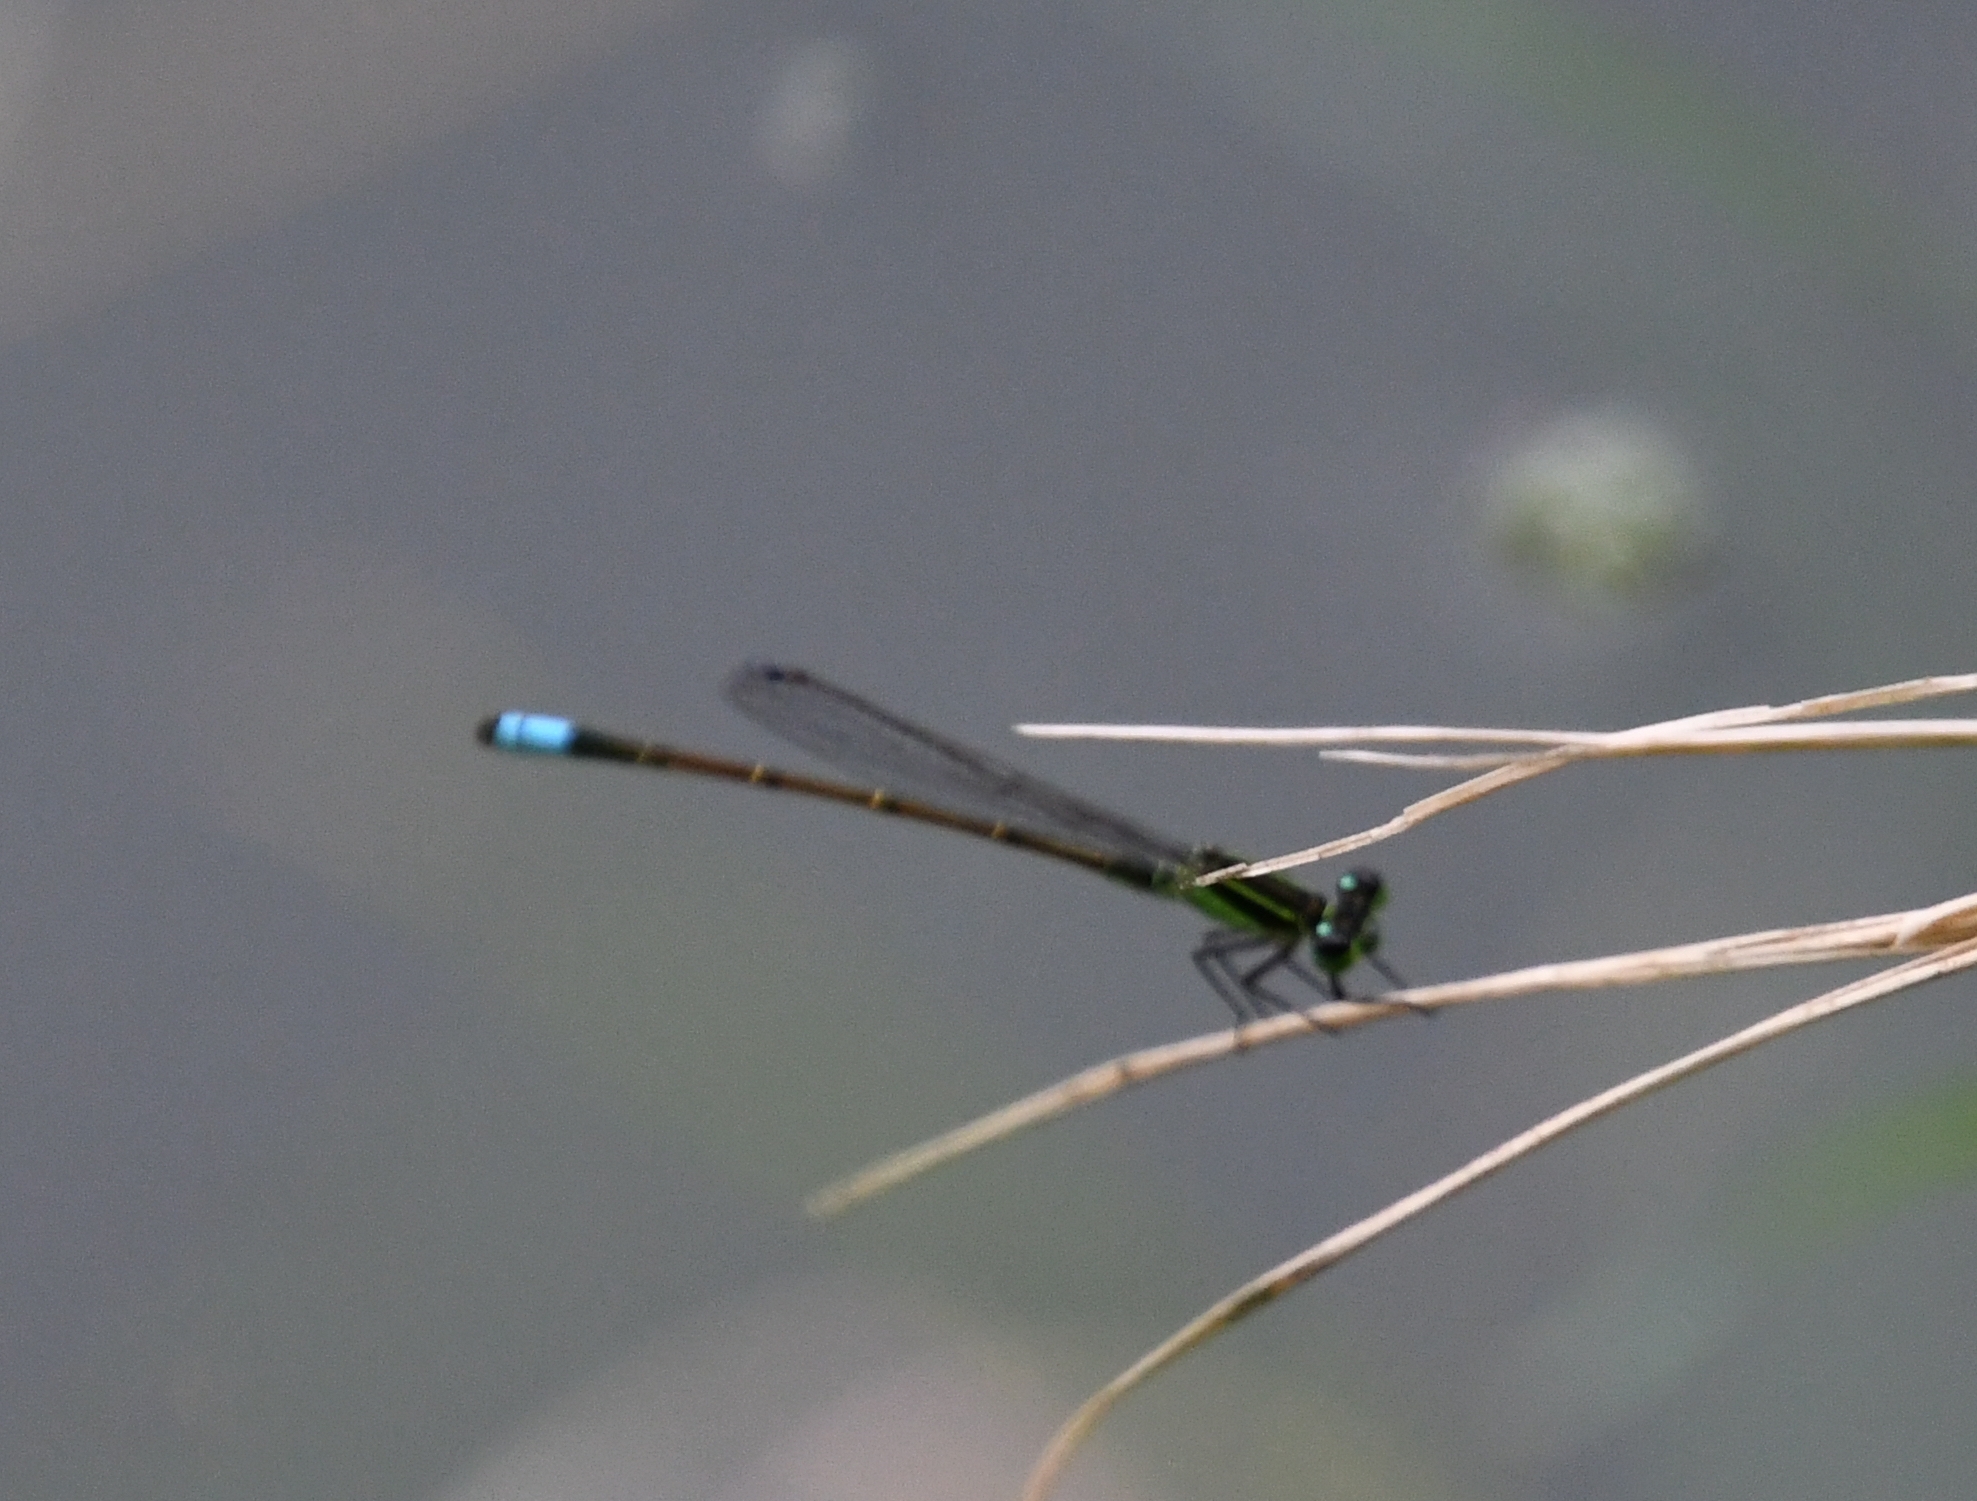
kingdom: Animalia
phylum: Arthropoda
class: Insecta
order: Odonata
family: Coenagrionidae
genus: Ischnura
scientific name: Ischnura ramburii
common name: Rambur's forktail
